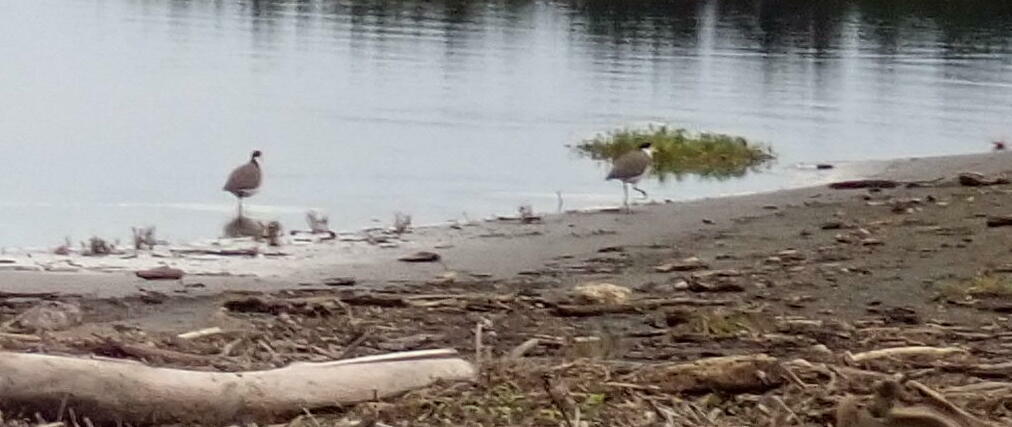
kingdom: Animalia
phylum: Chordata
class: Aves
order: Charadriiformes
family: Charadriidae
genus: Vanellus
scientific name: Vanellus miles
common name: Masked lapwing
